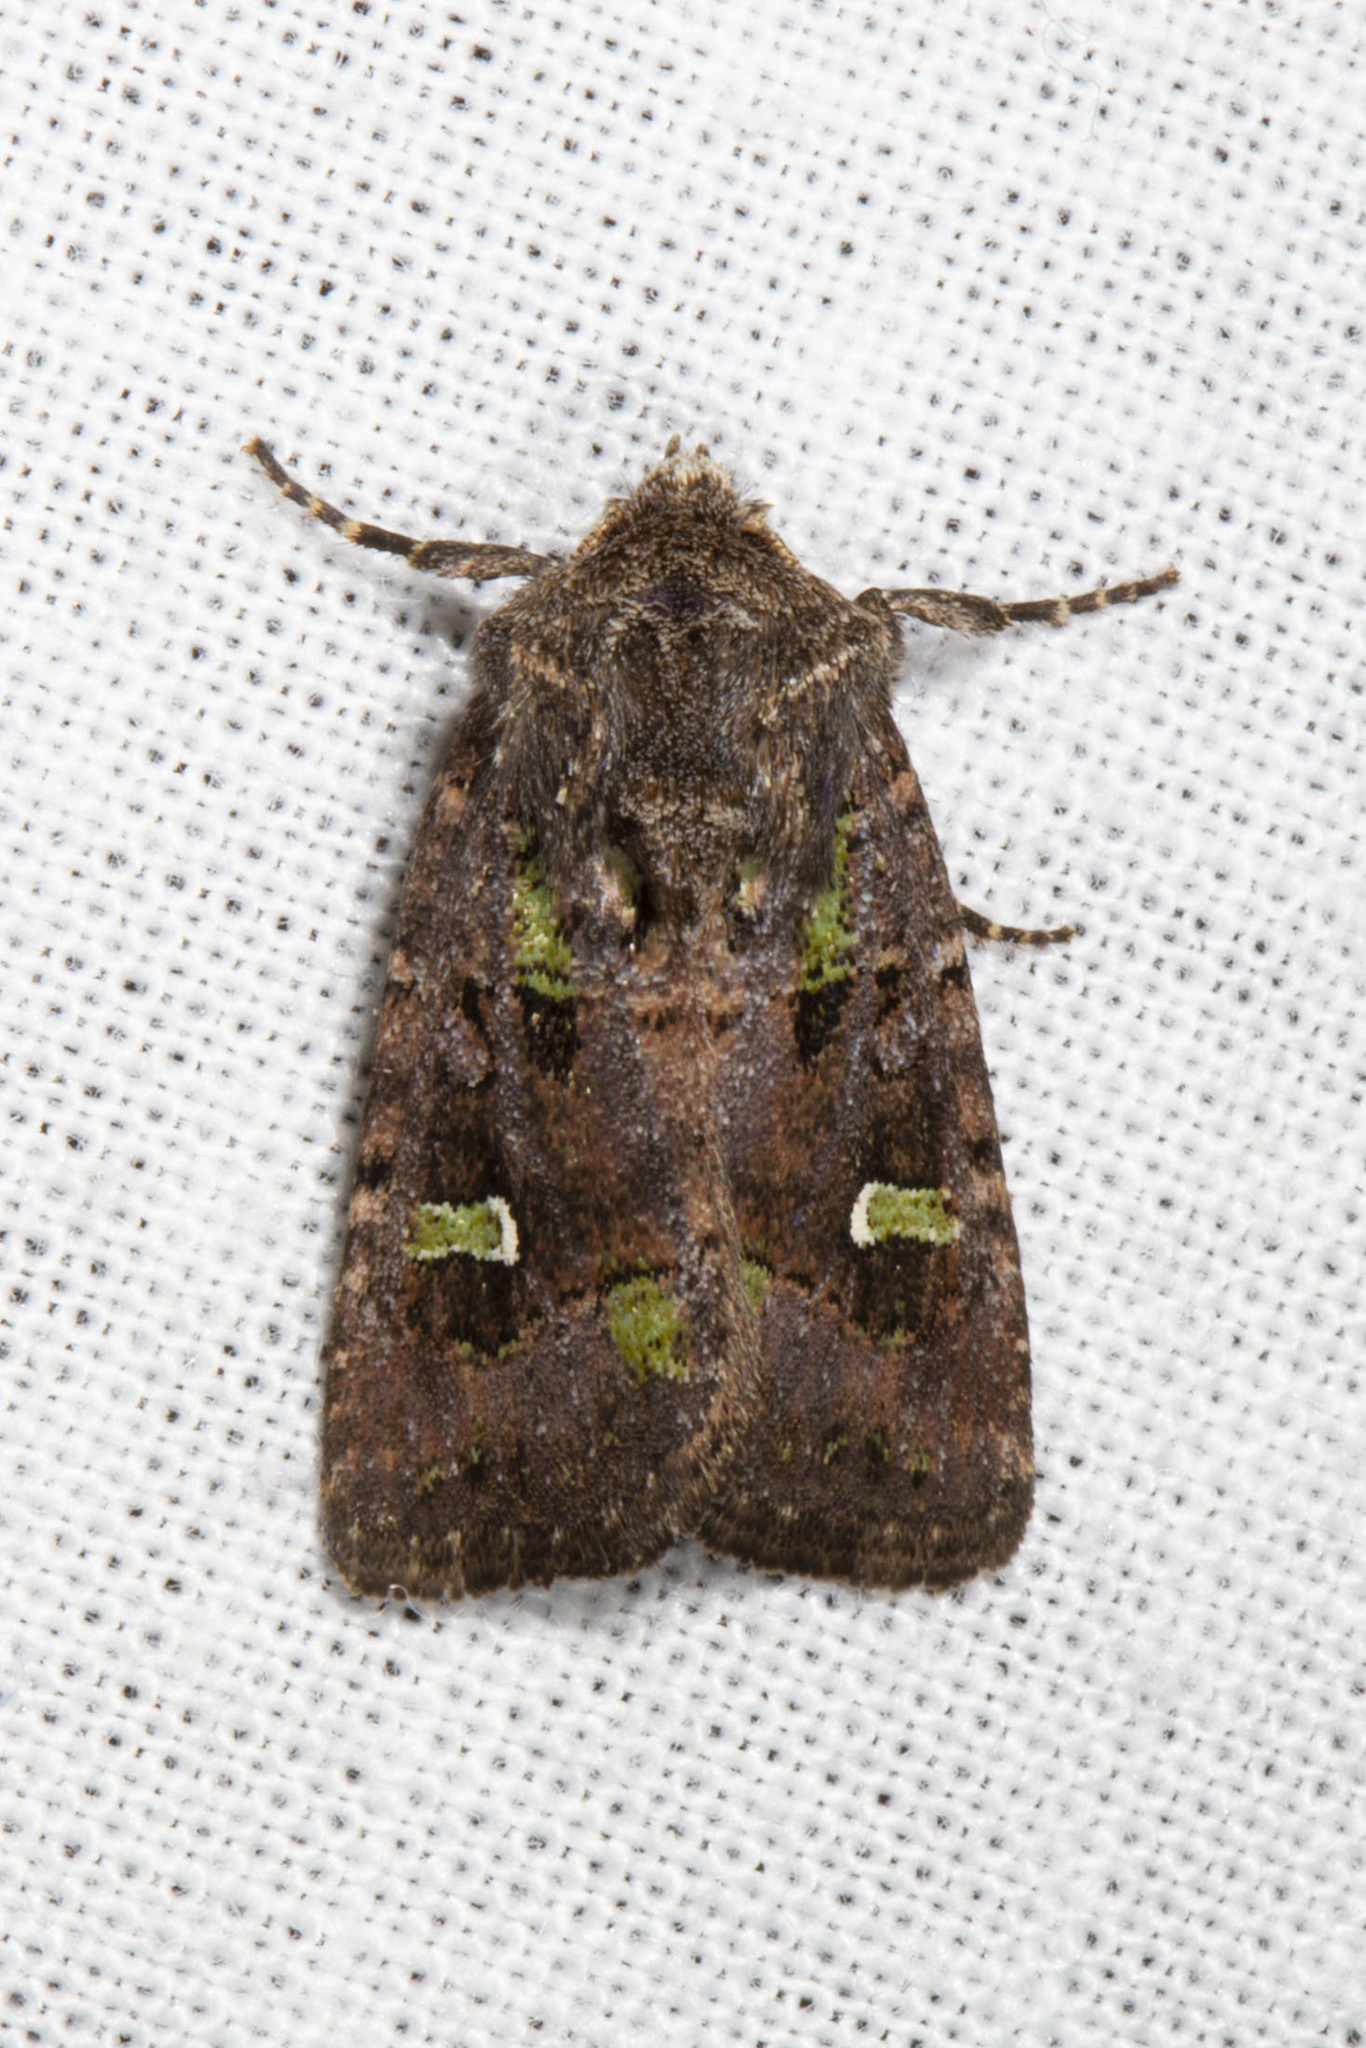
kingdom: Animalia
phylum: Arthropoda
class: Insecta
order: Lepidoptera
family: Noctuidae
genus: Lacinipolia
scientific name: Lacinipolia renigera
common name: Kidney-spotted minor
